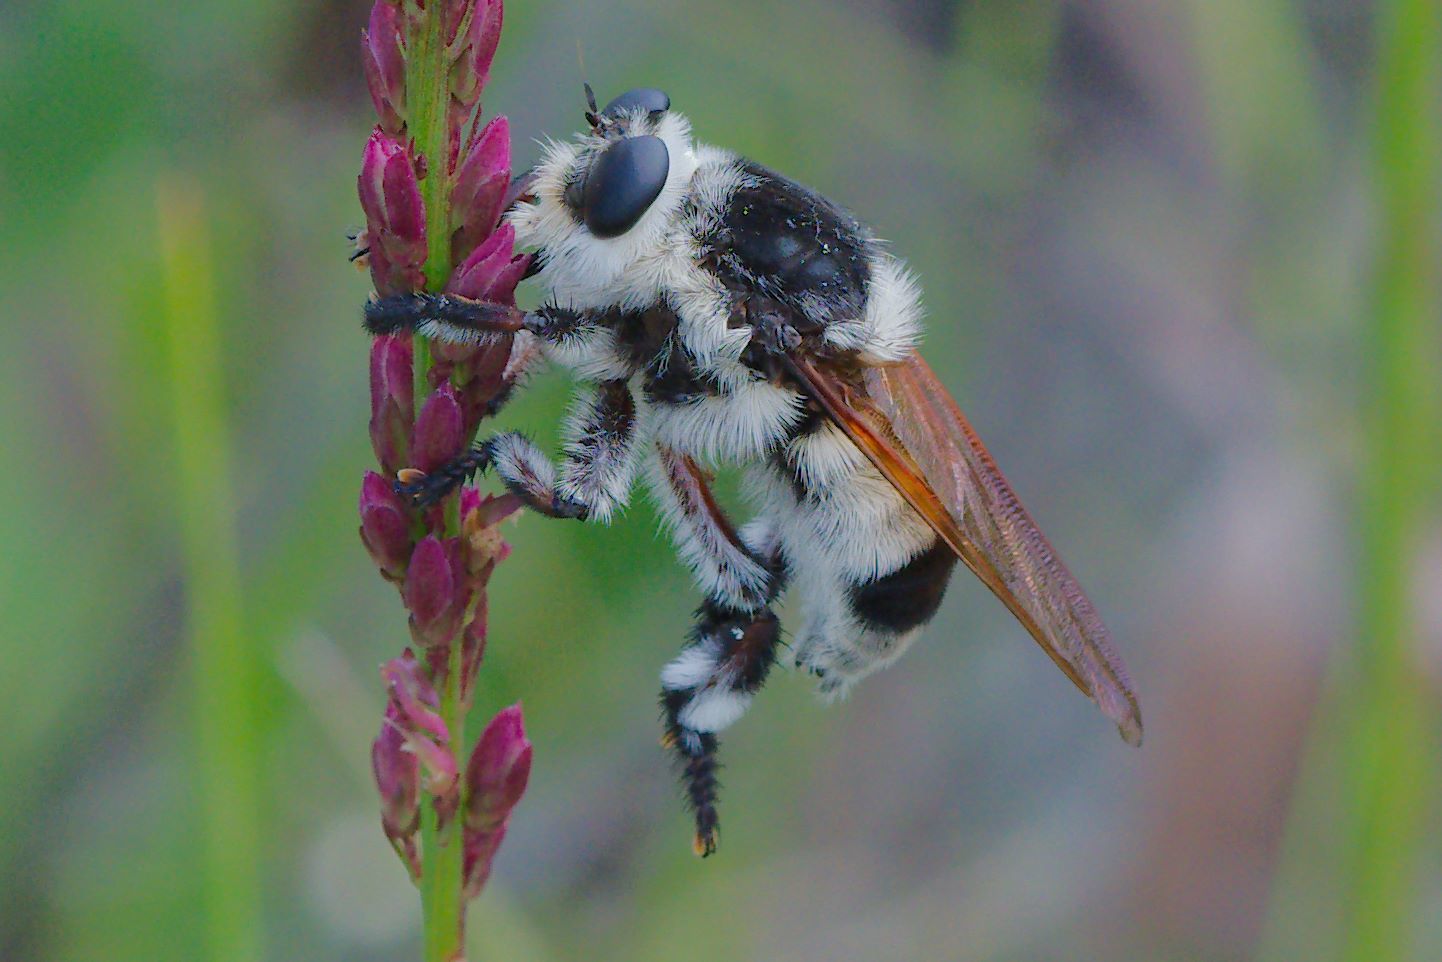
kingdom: Animalia
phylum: Arthropoda
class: Insecta
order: Diptera
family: Asilidae
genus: Mallophora
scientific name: Mallophora bomboides
